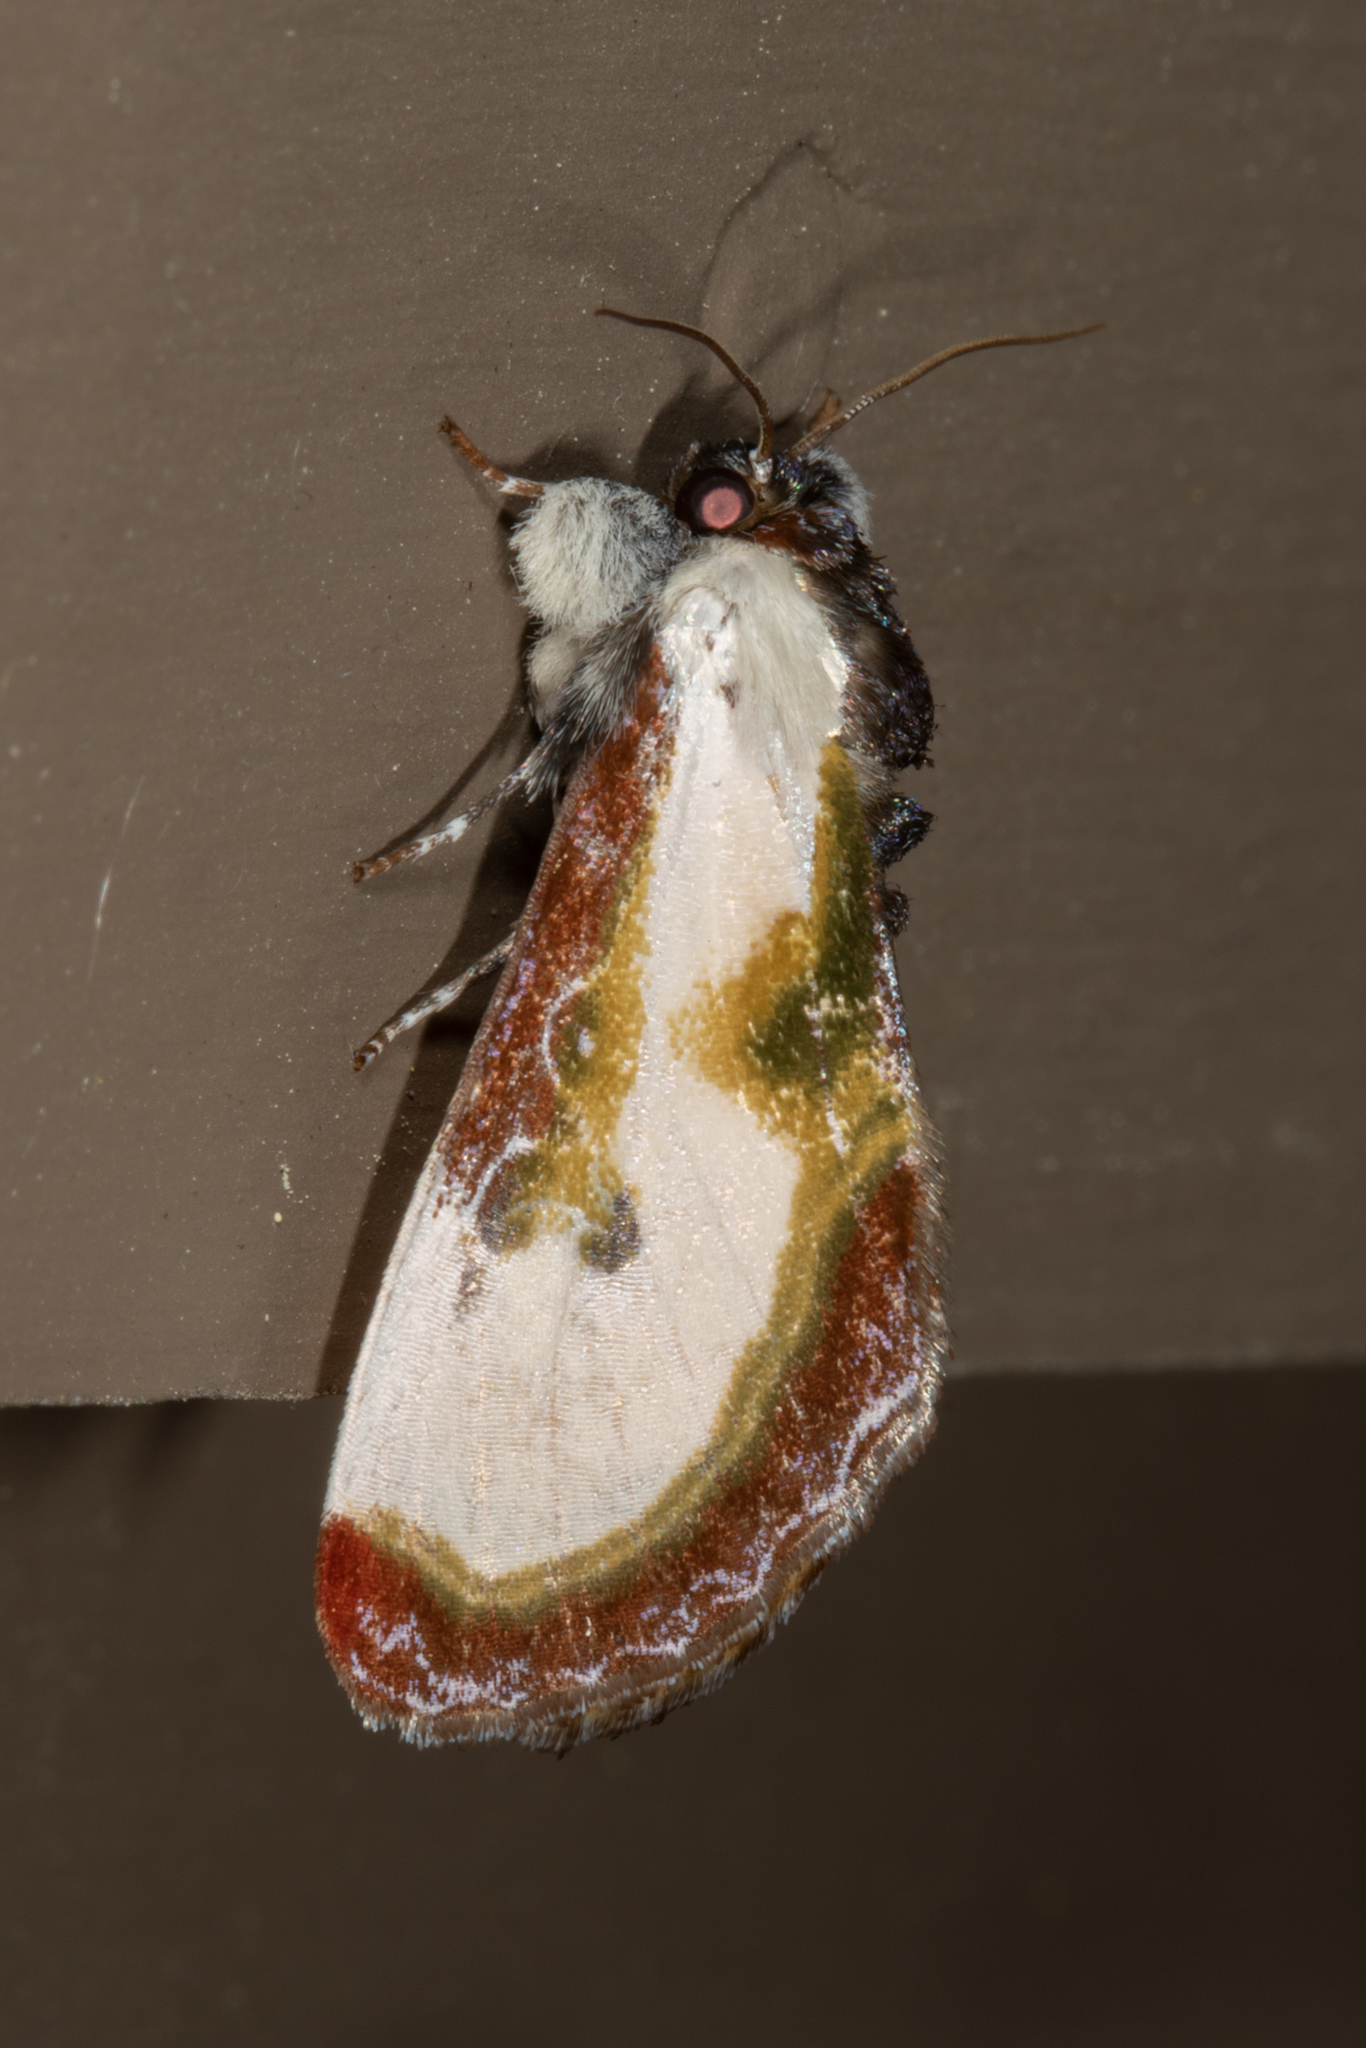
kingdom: Animalia
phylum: Arthropoda
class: Insecta
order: Lepidoptera
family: Noctuidae
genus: Eudryas
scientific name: Eudryas grata
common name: Beautiful wood-nymph
